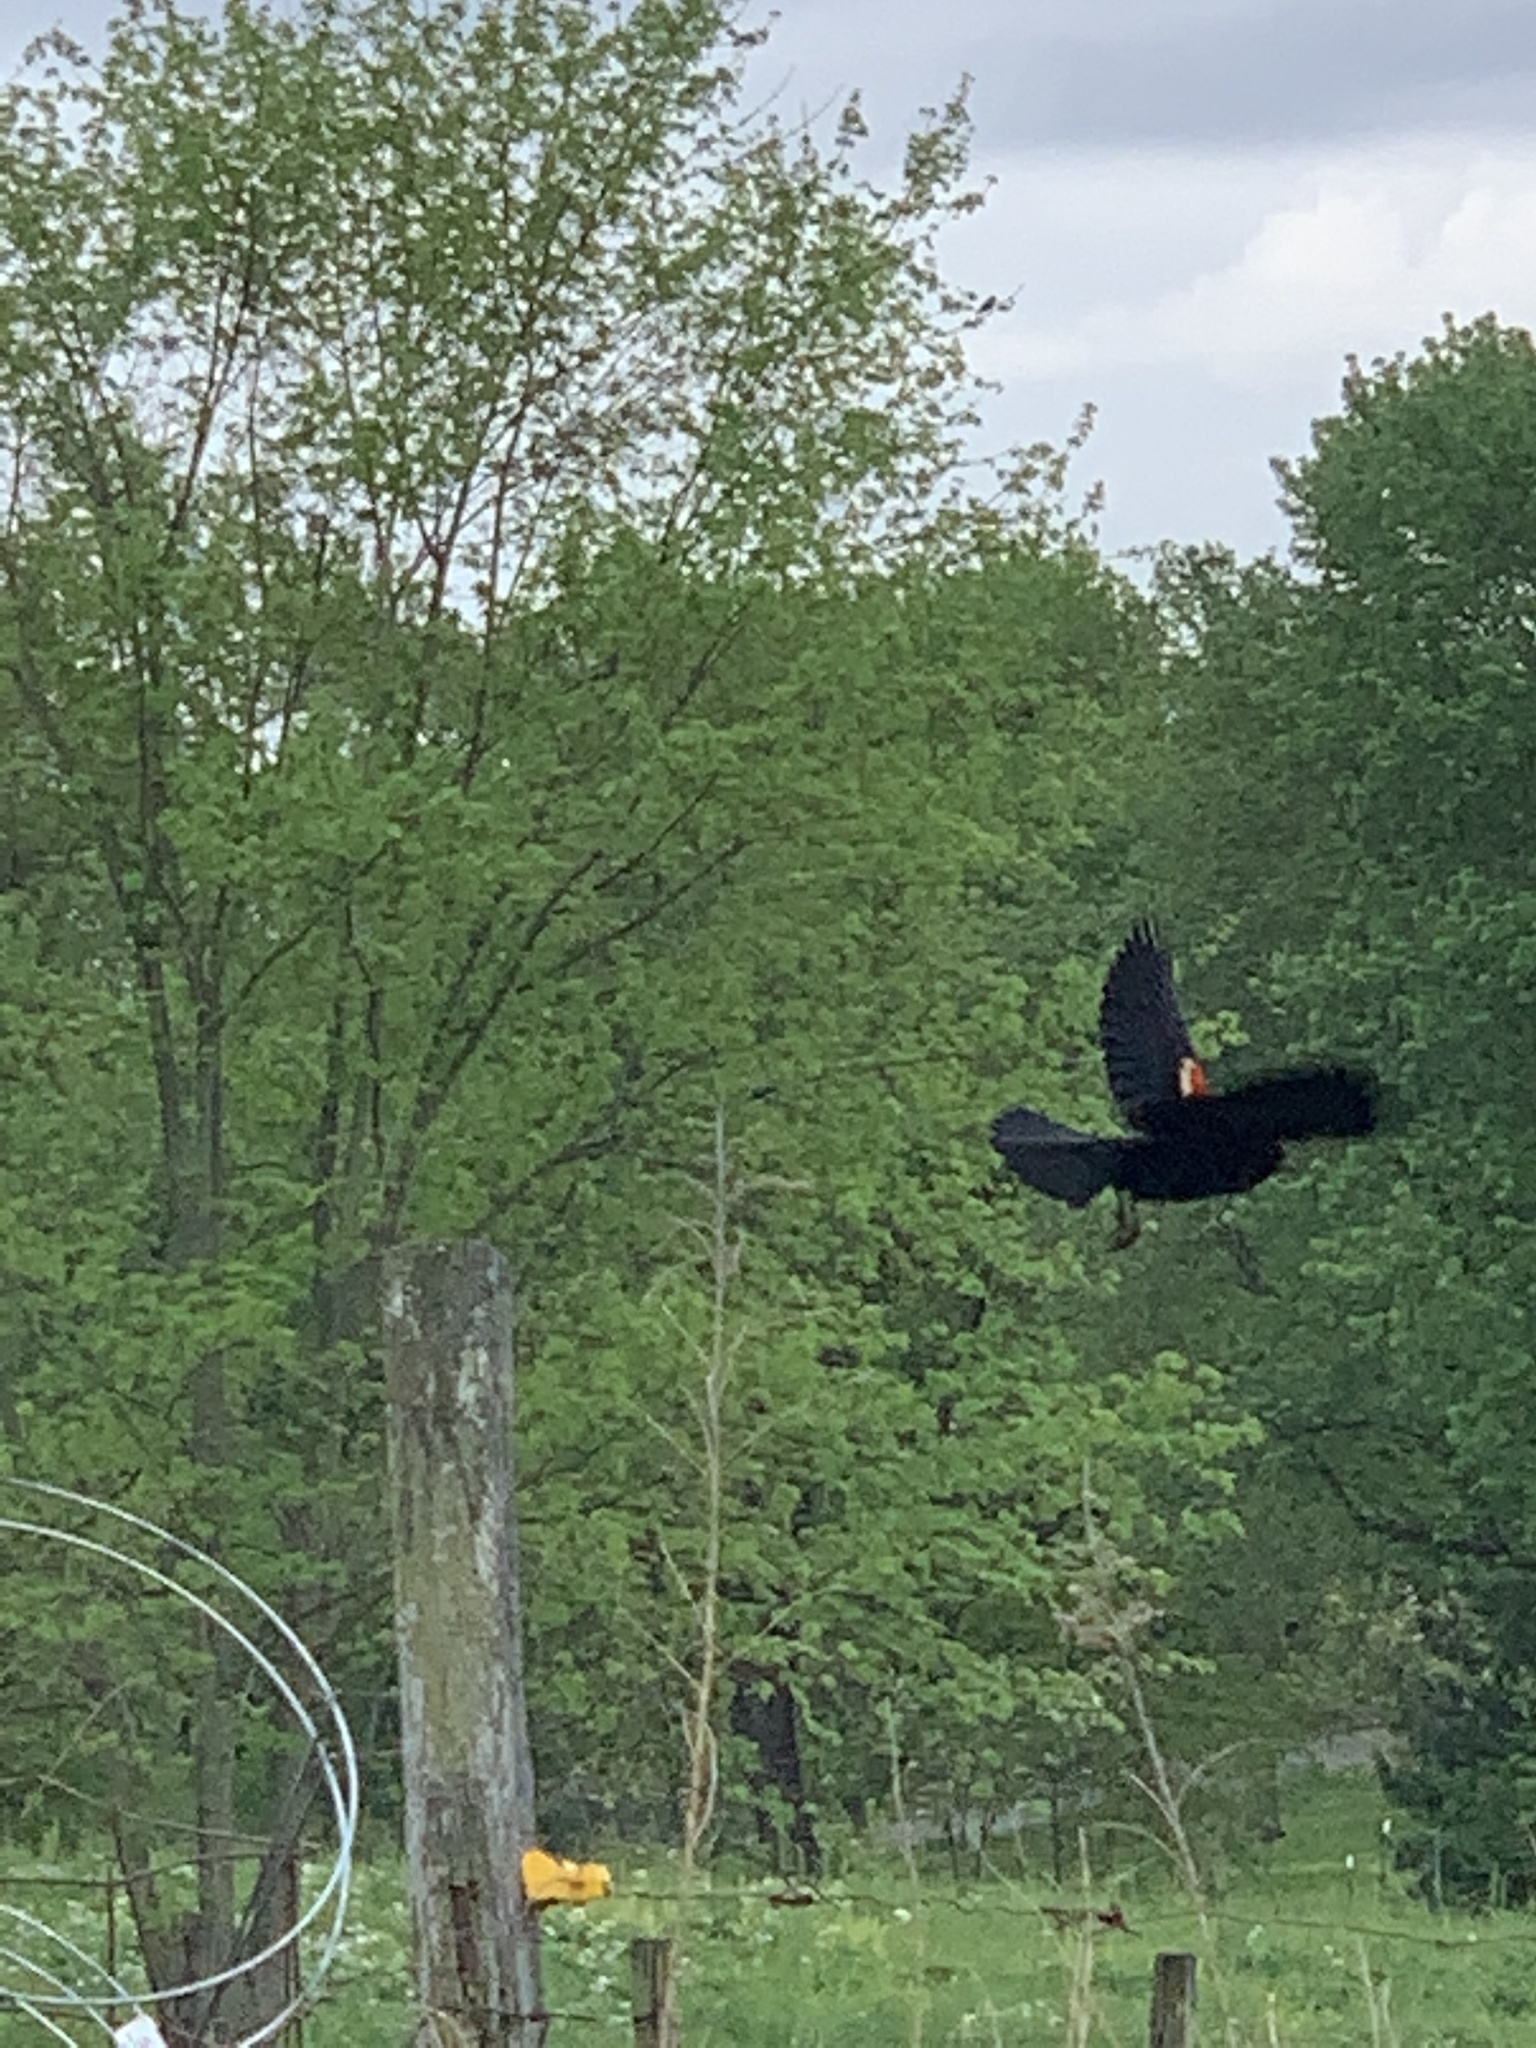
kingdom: Animalia
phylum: Chordata
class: Aves
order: Passeriformes
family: Icteridae
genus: Agelaius
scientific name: Agelaius phoeniceus
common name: Red-winged blackbird
